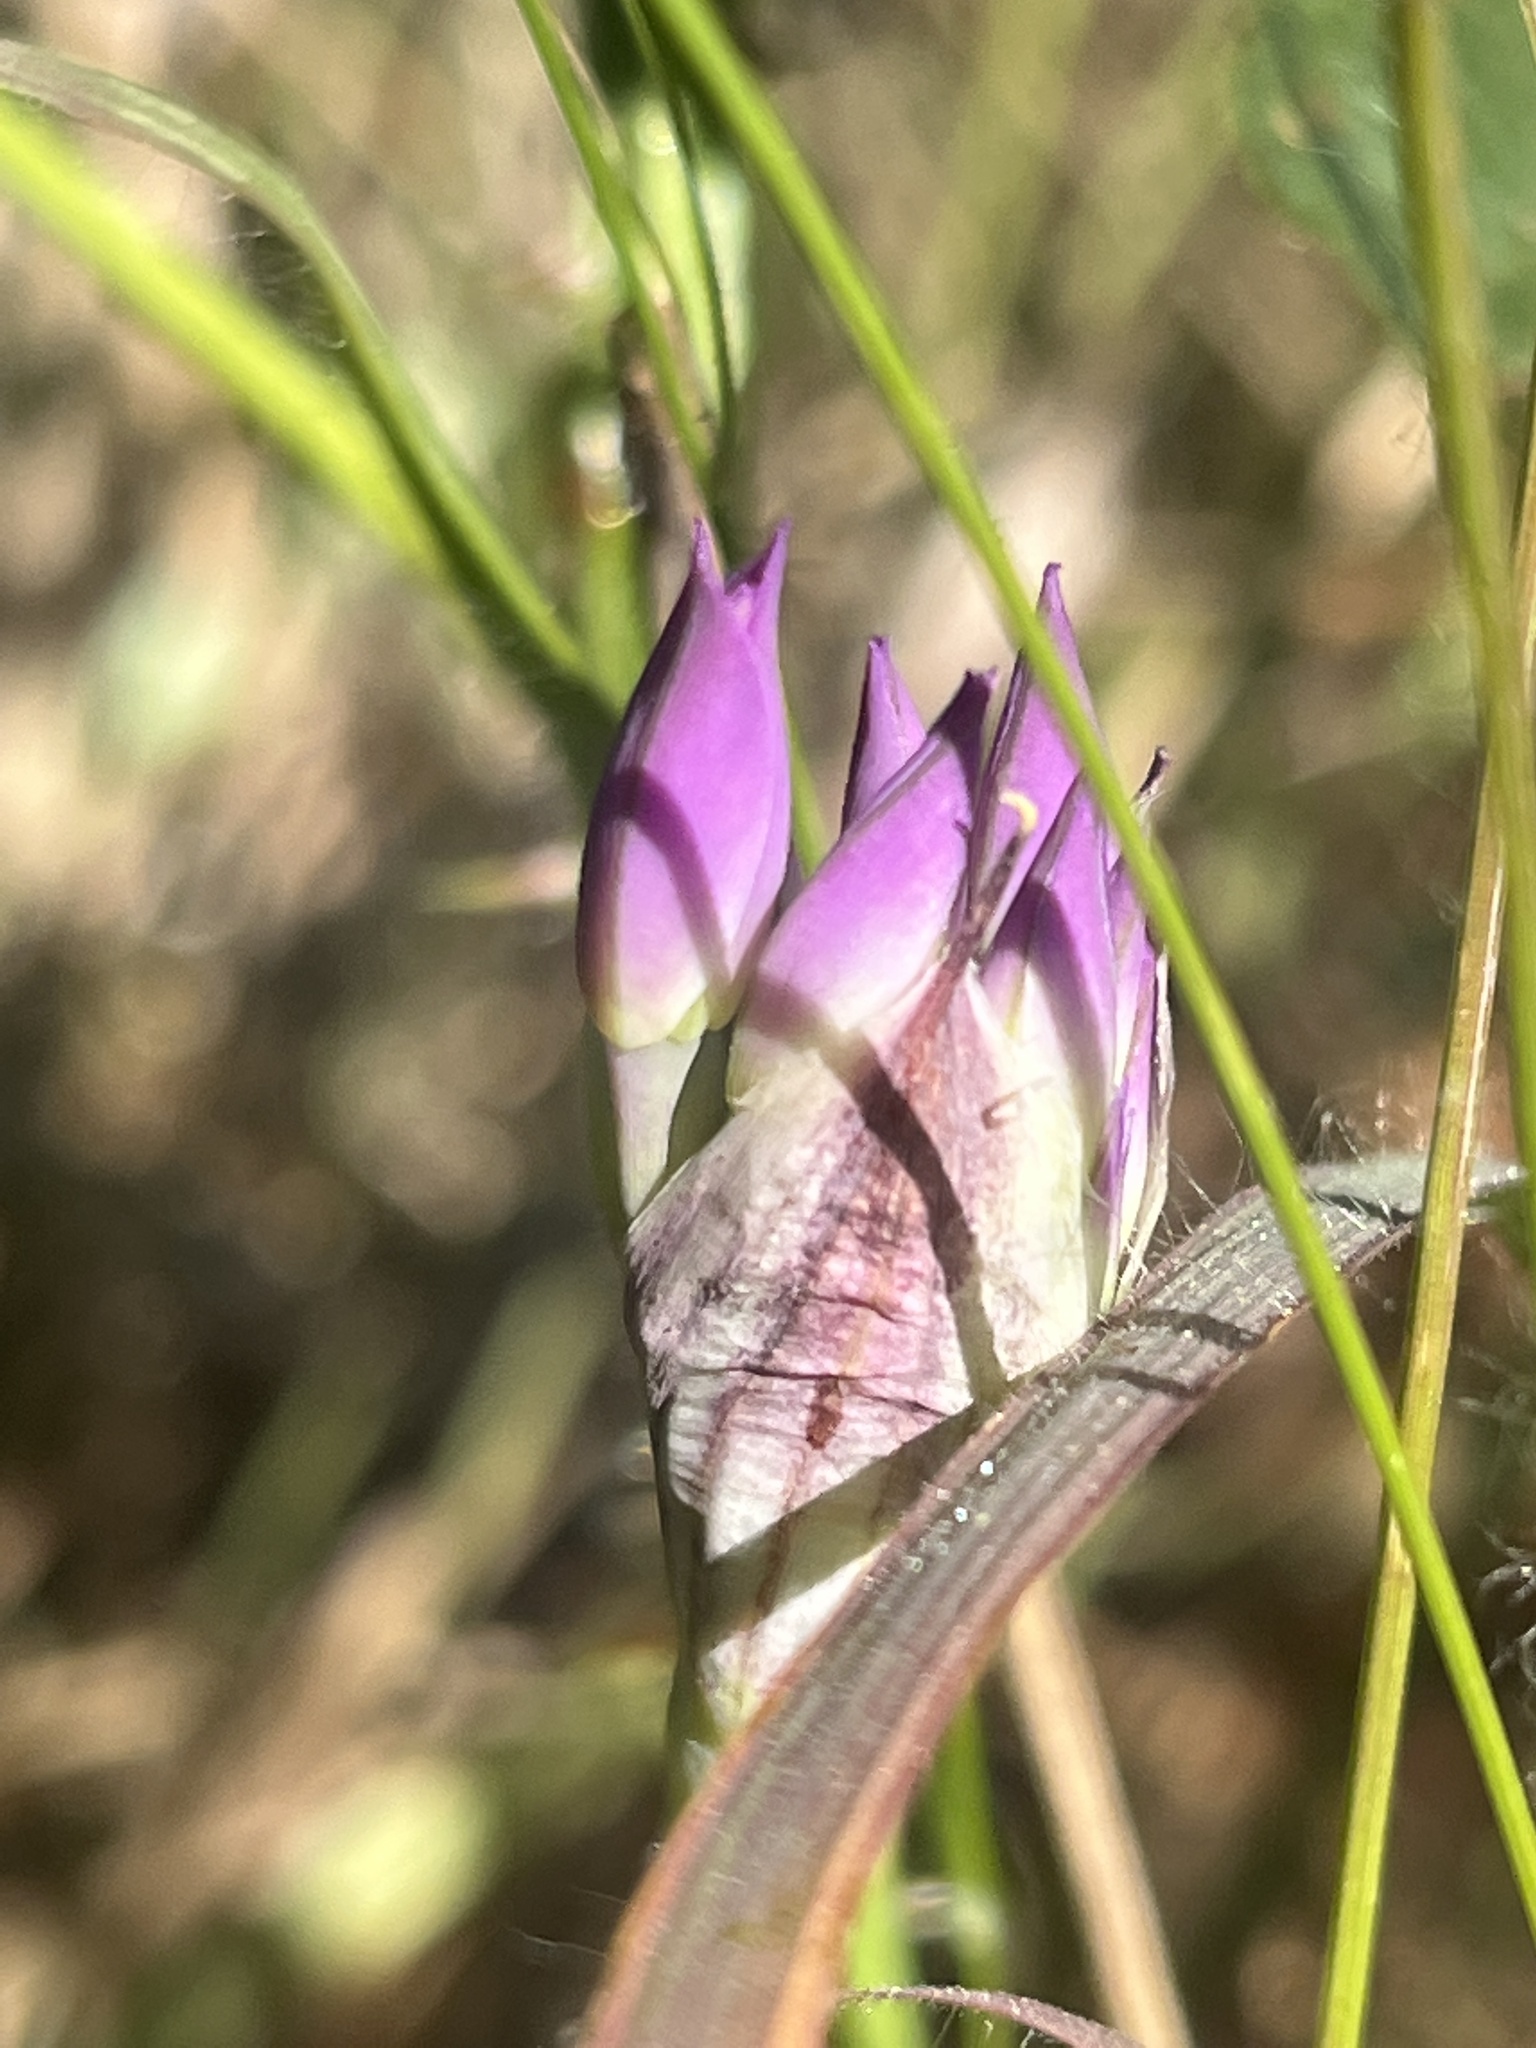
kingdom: Plantae
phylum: Tracheophyta
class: Liliopsida
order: Asparagales
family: Amaryllidaceae
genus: Allium
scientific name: Allium acuminatum
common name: Hooker's onion
